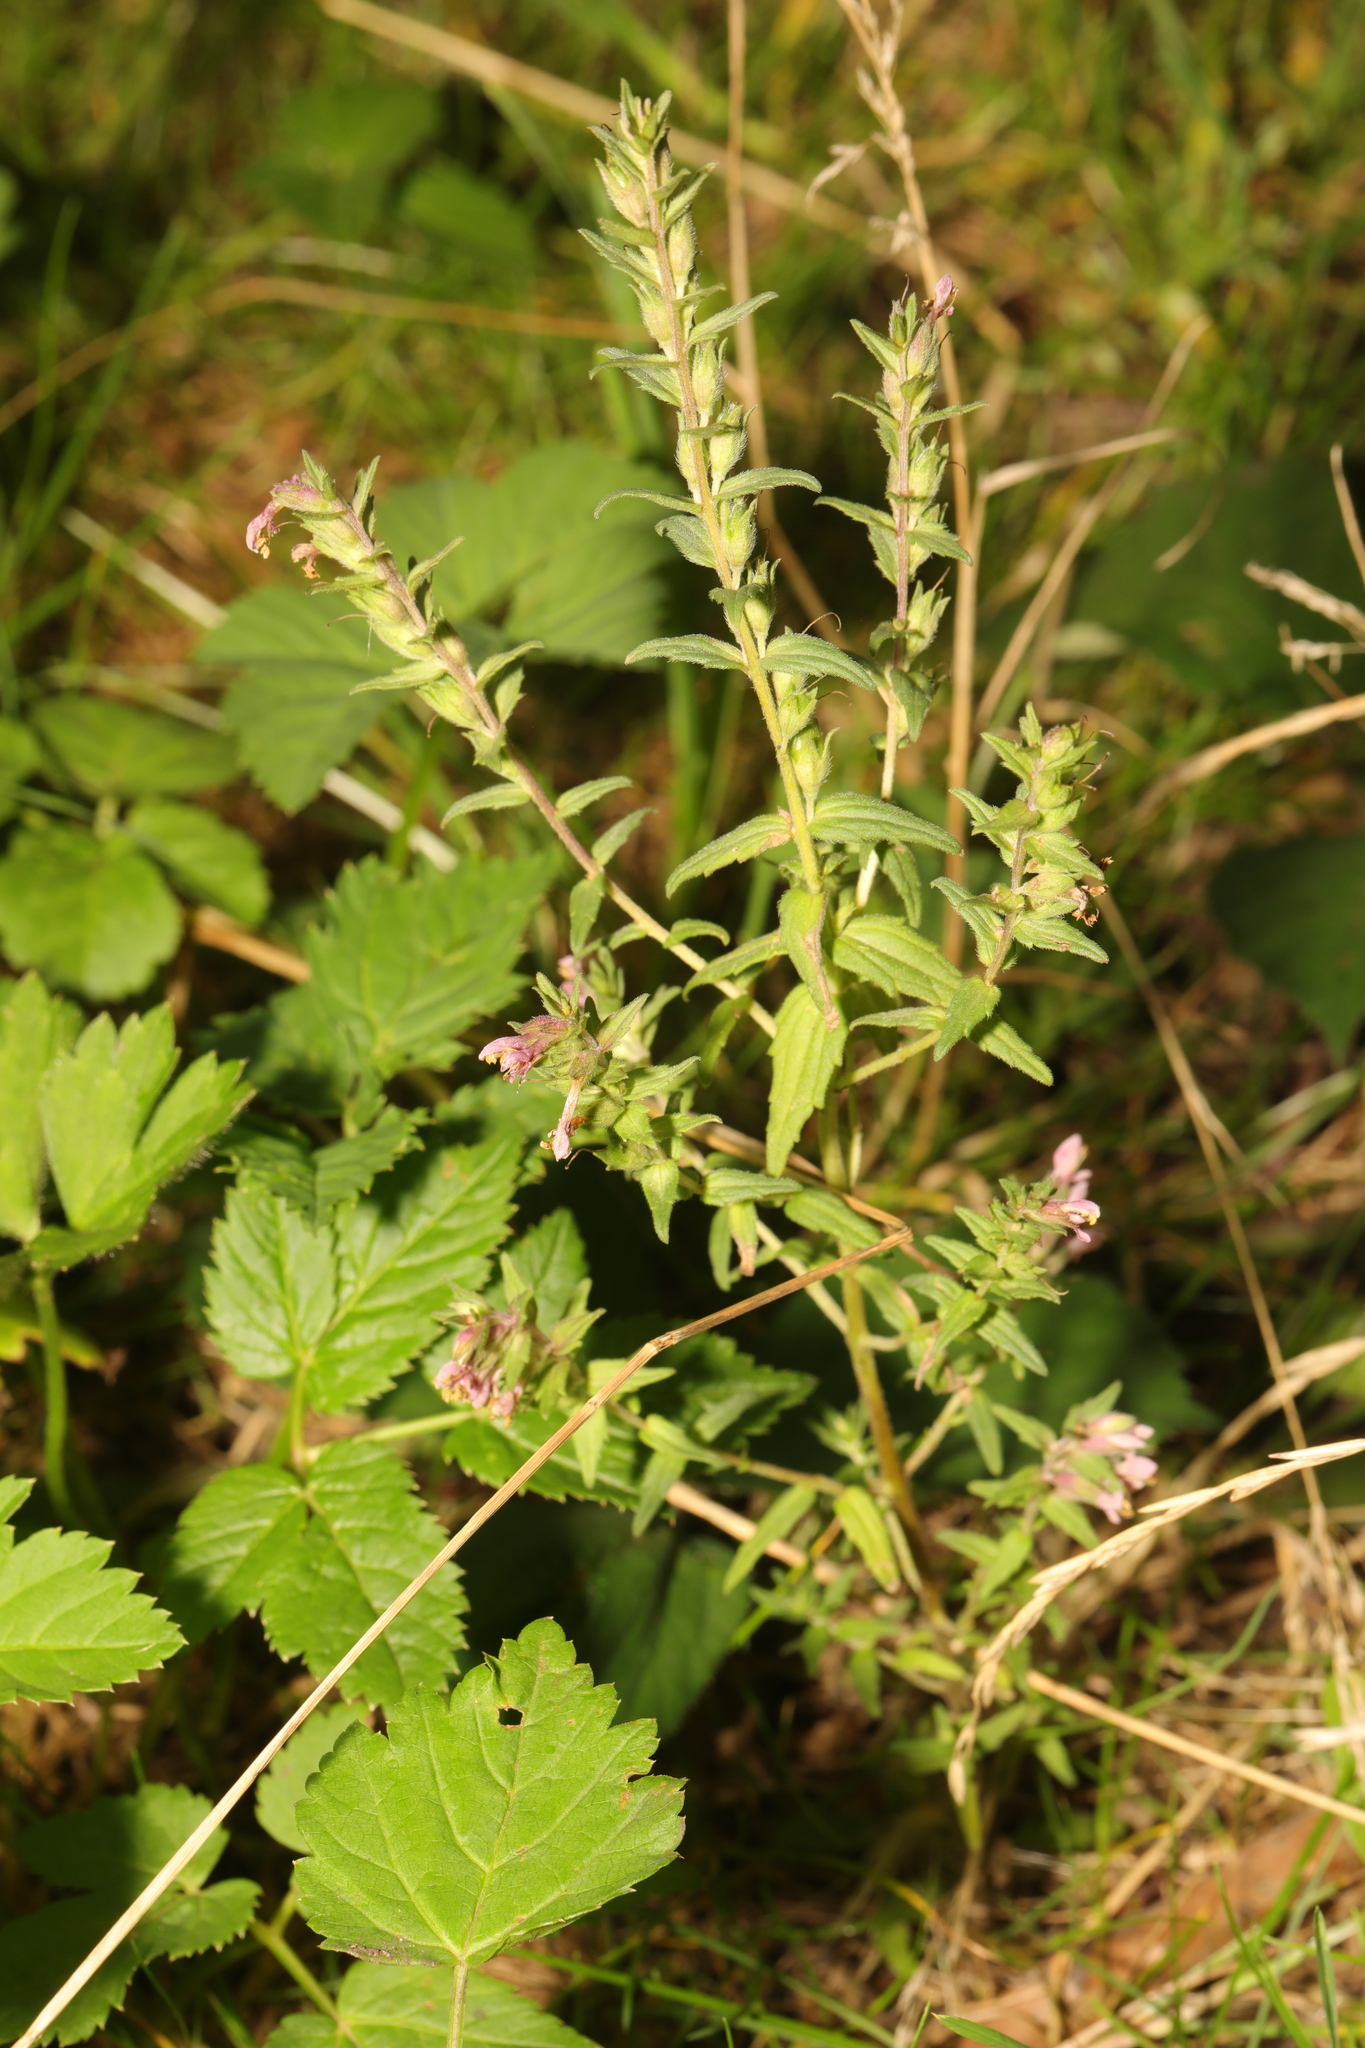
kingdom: Plantae
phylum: Tracheophyta
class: Magnoliopsida
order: Lamiales
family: Orobanchaceae
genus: Odontites
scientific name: Odontites vernus
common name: Red bartsia
